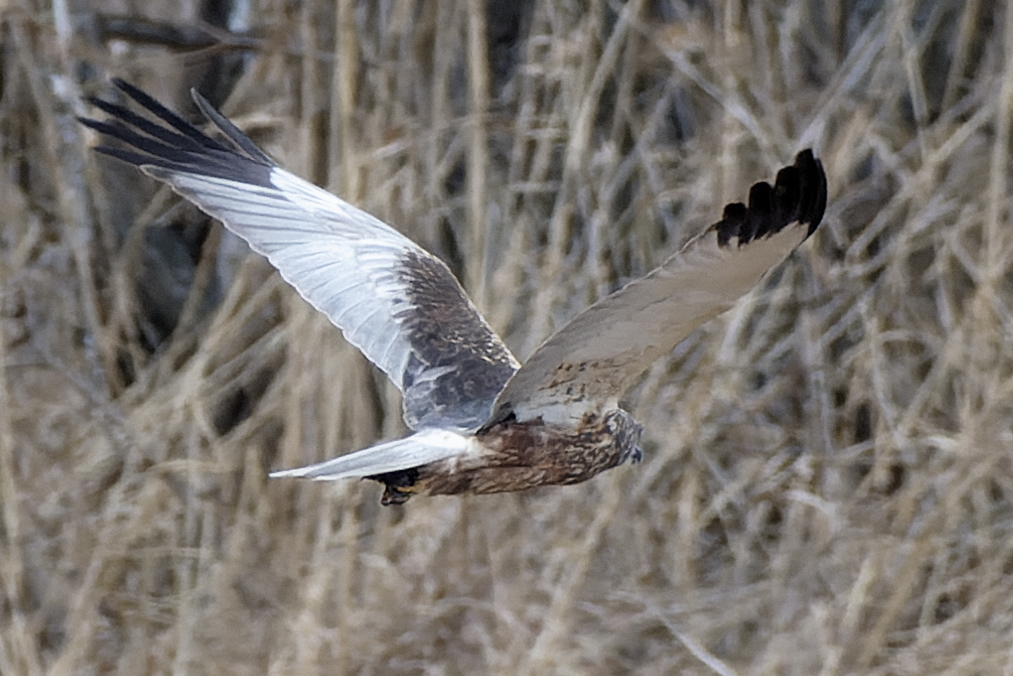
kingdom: Animalia
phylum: Chordata
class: Aves
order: Accipitriformes
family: Accipitridae
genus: Circus
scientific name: Circus aeruginosus
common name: Western marsh harrier
